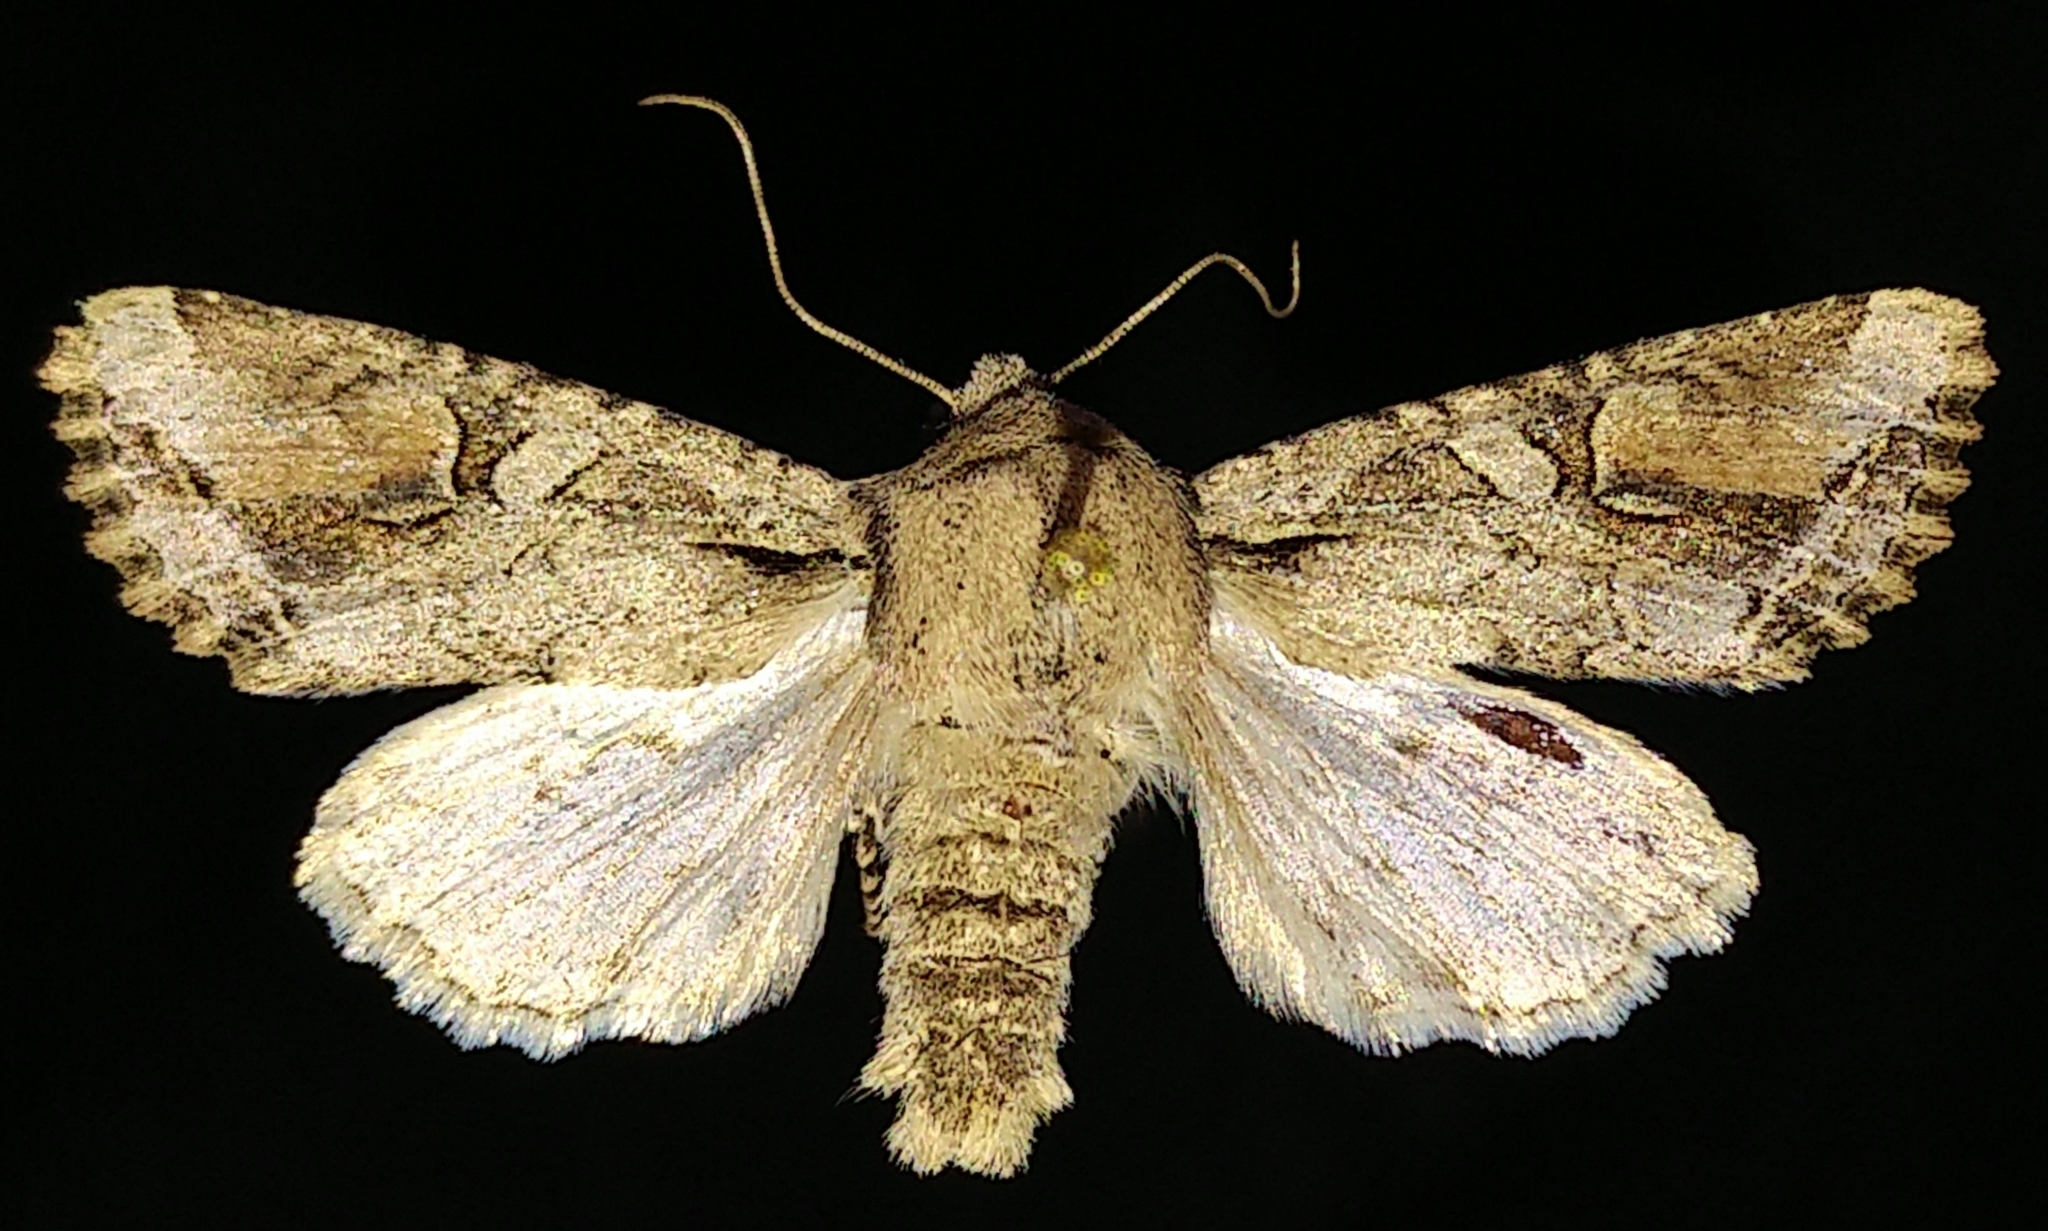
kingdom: Animalia
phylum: Arthropoda
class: Insecta
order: Lepidoptera
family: Noctuidae
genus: Egira
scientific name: Egira rubrica
